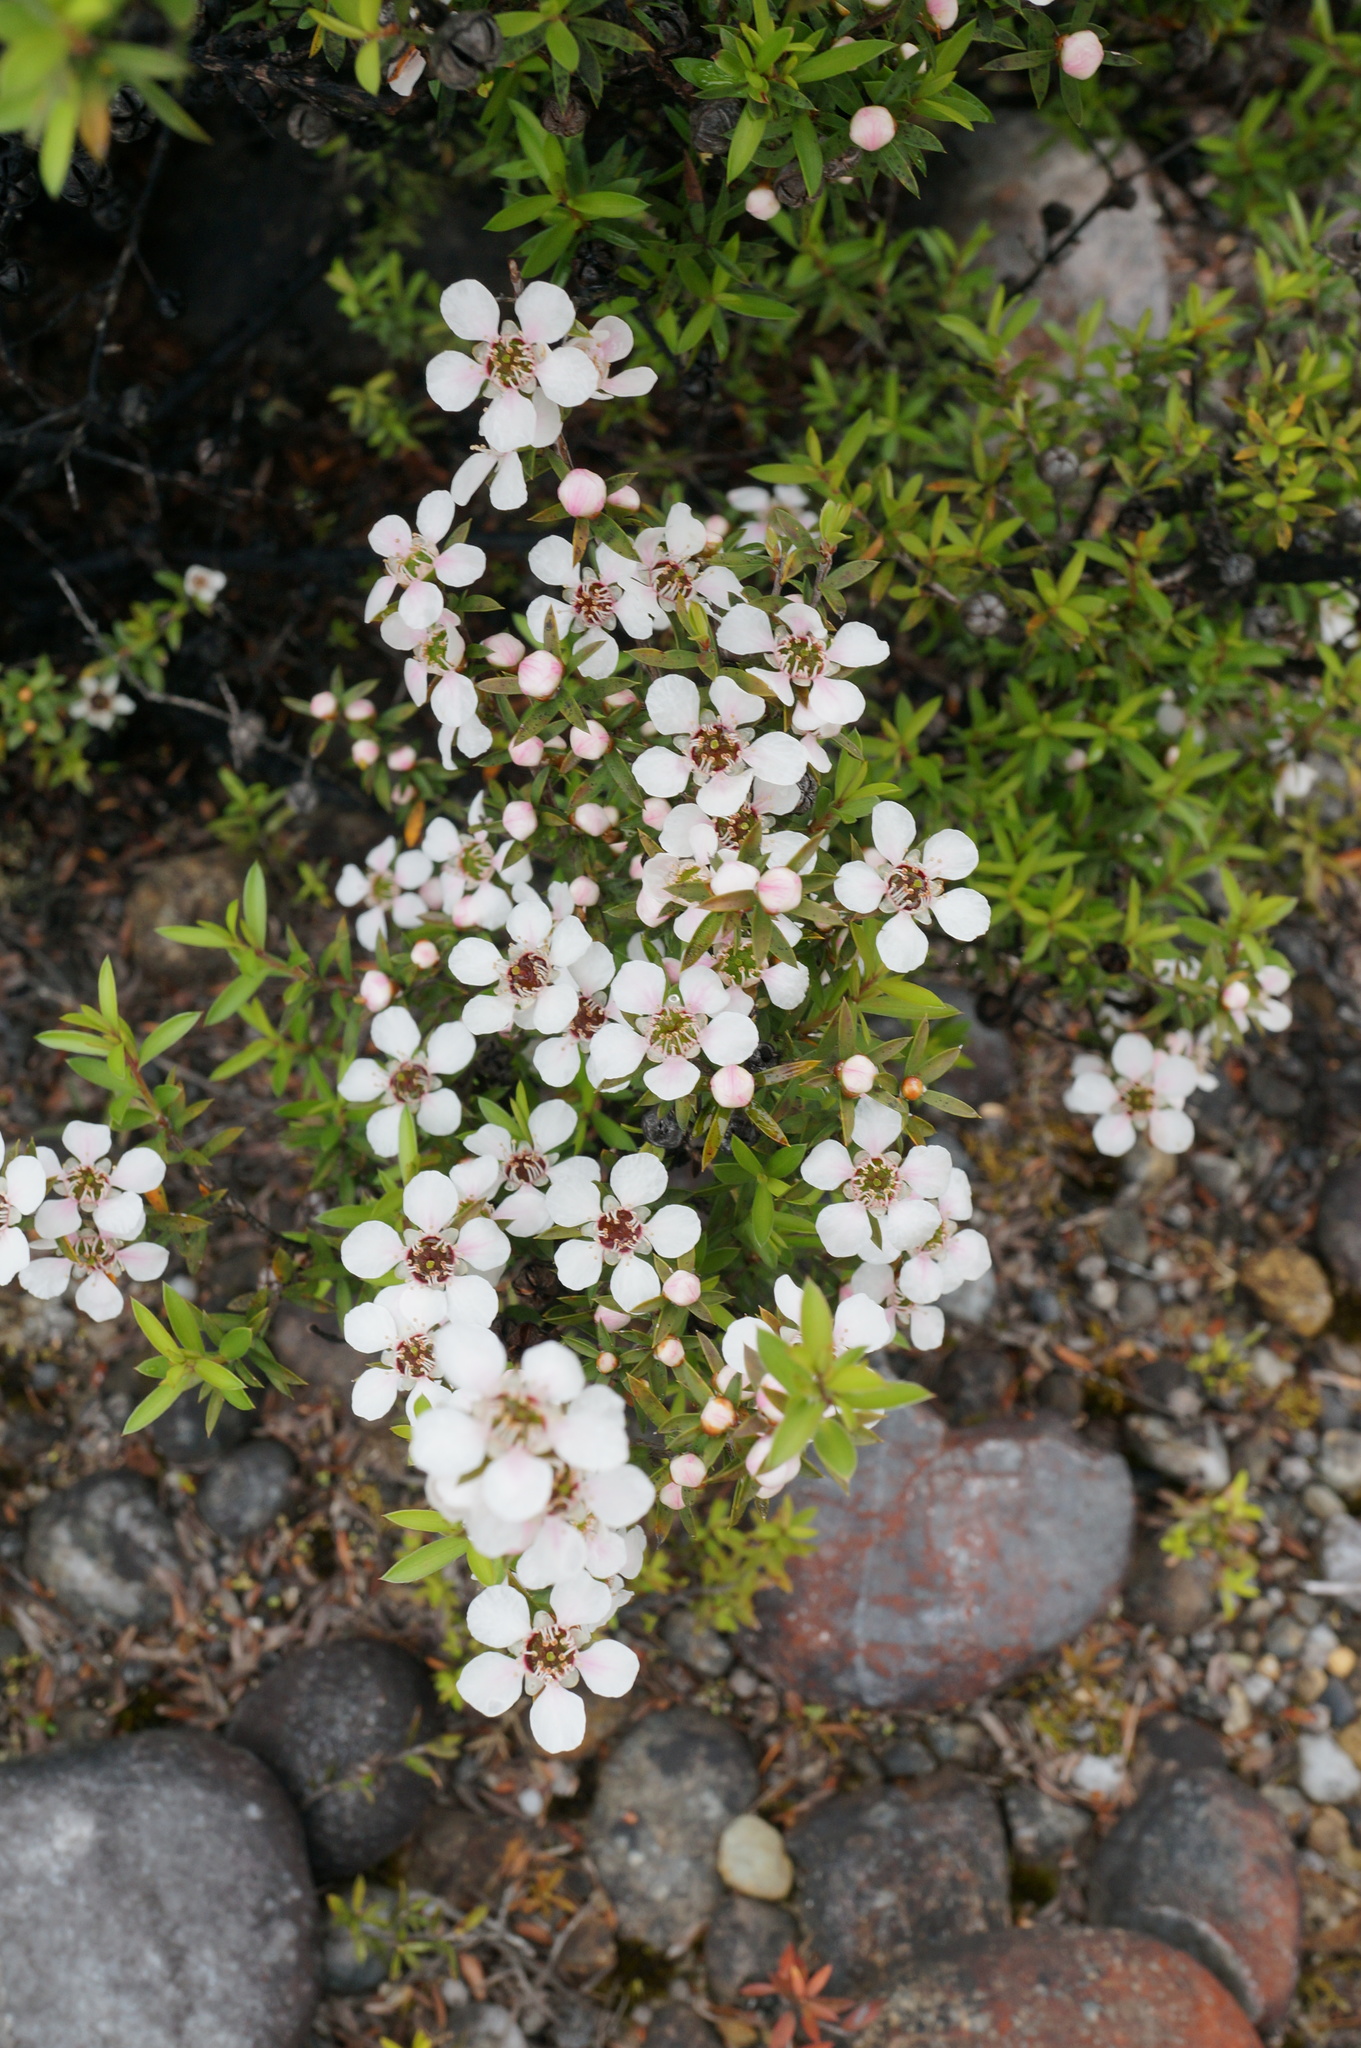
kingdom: Plantae
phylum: Tracheophyta
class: Magnoliopsida
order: Myrtales
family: Myrtaceae
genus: Leptospermum
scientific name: Leptospermum scoparium
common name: Broom tea-tree
